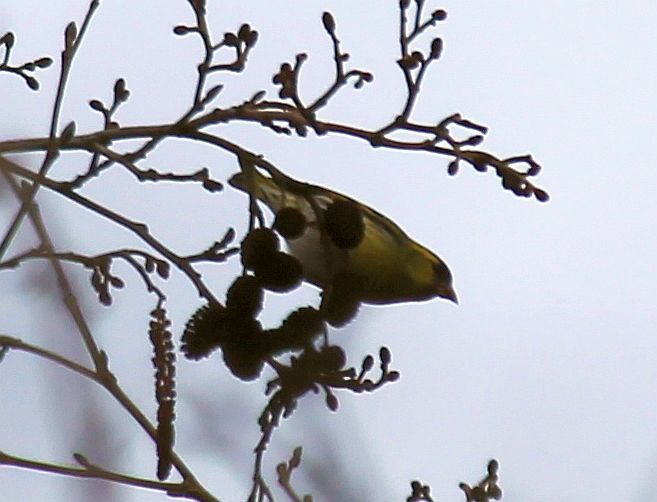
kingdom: Animalia
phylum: Chordata
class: Aves
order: Passeriformes
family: Fringillidae
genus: Spinus
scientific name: Spinus spinus
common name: Eurasian siskin
